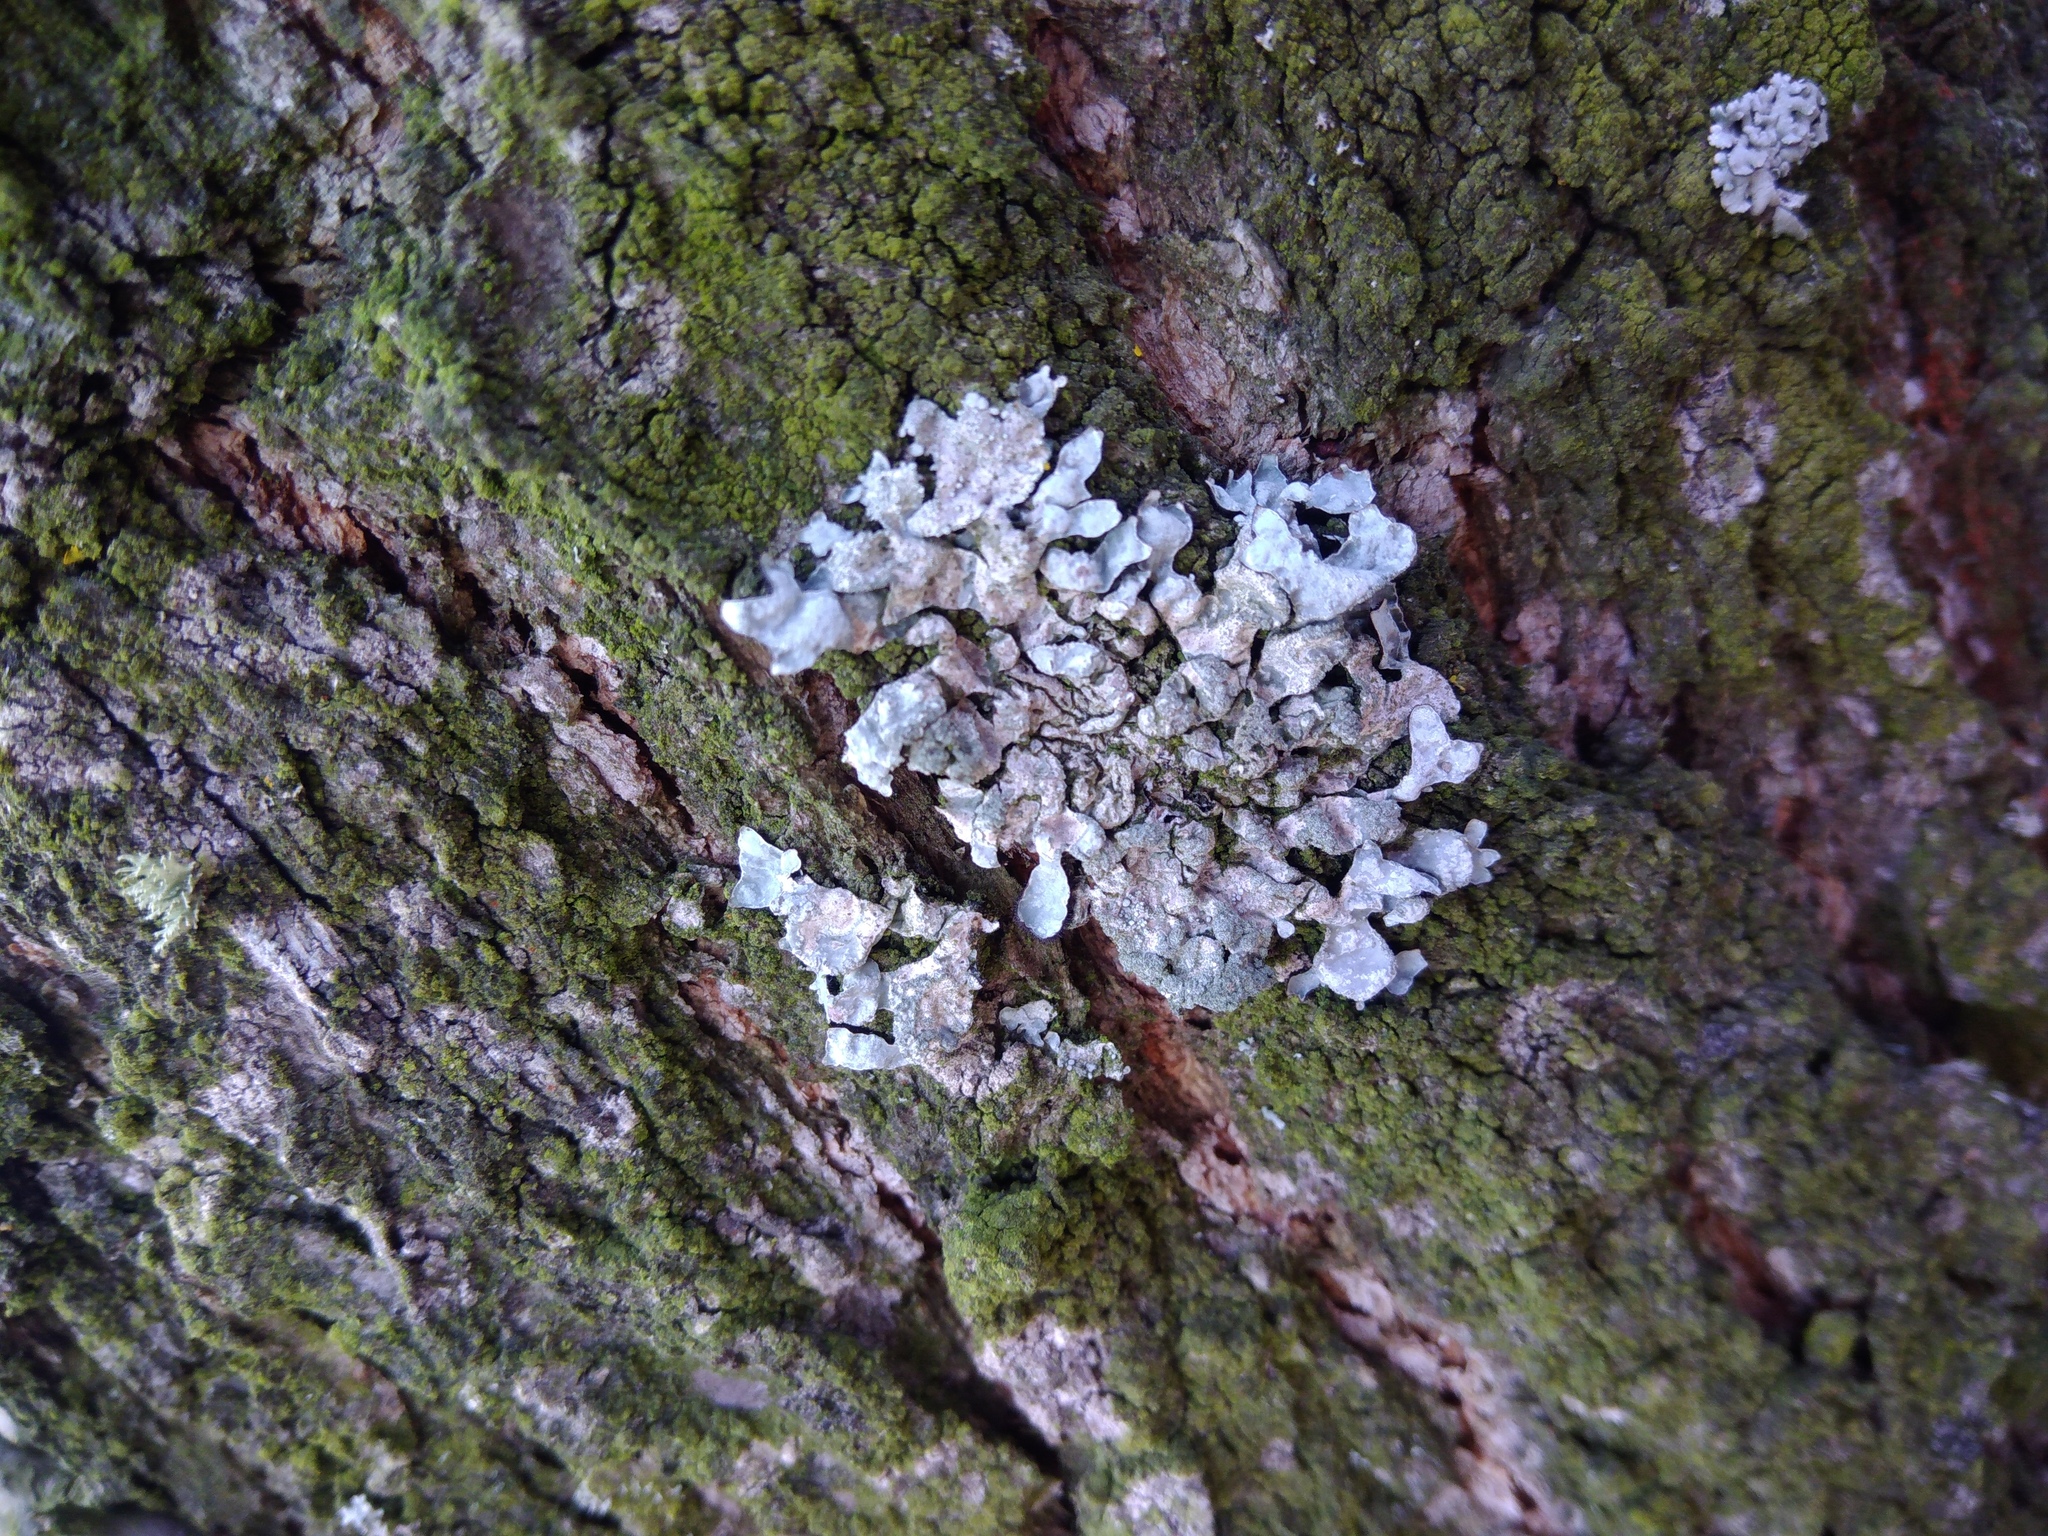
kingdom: Fungi
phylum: Ascomycota
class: Lecanoromycetes
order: Lecanorales
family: Parmeliaceae
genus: Parmelia
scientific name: Parmelia sulcata
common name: Netted shield lichen
